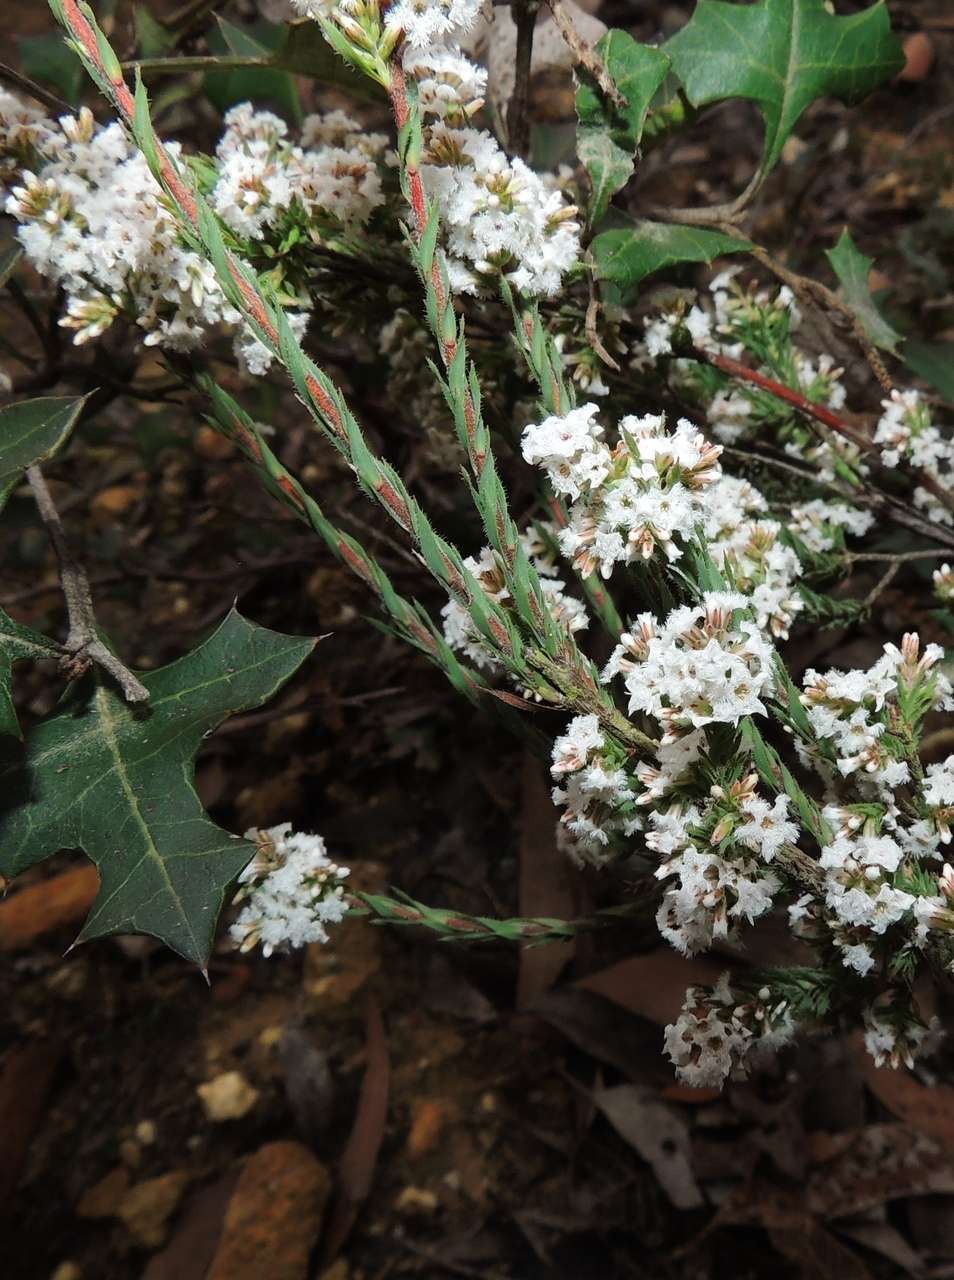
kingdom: Plantae
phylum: Tracheophyta
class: Magnoliopsida
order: Ericales
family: Ericaceae
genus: Leucopogon
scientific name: Leucopogon glacialis
